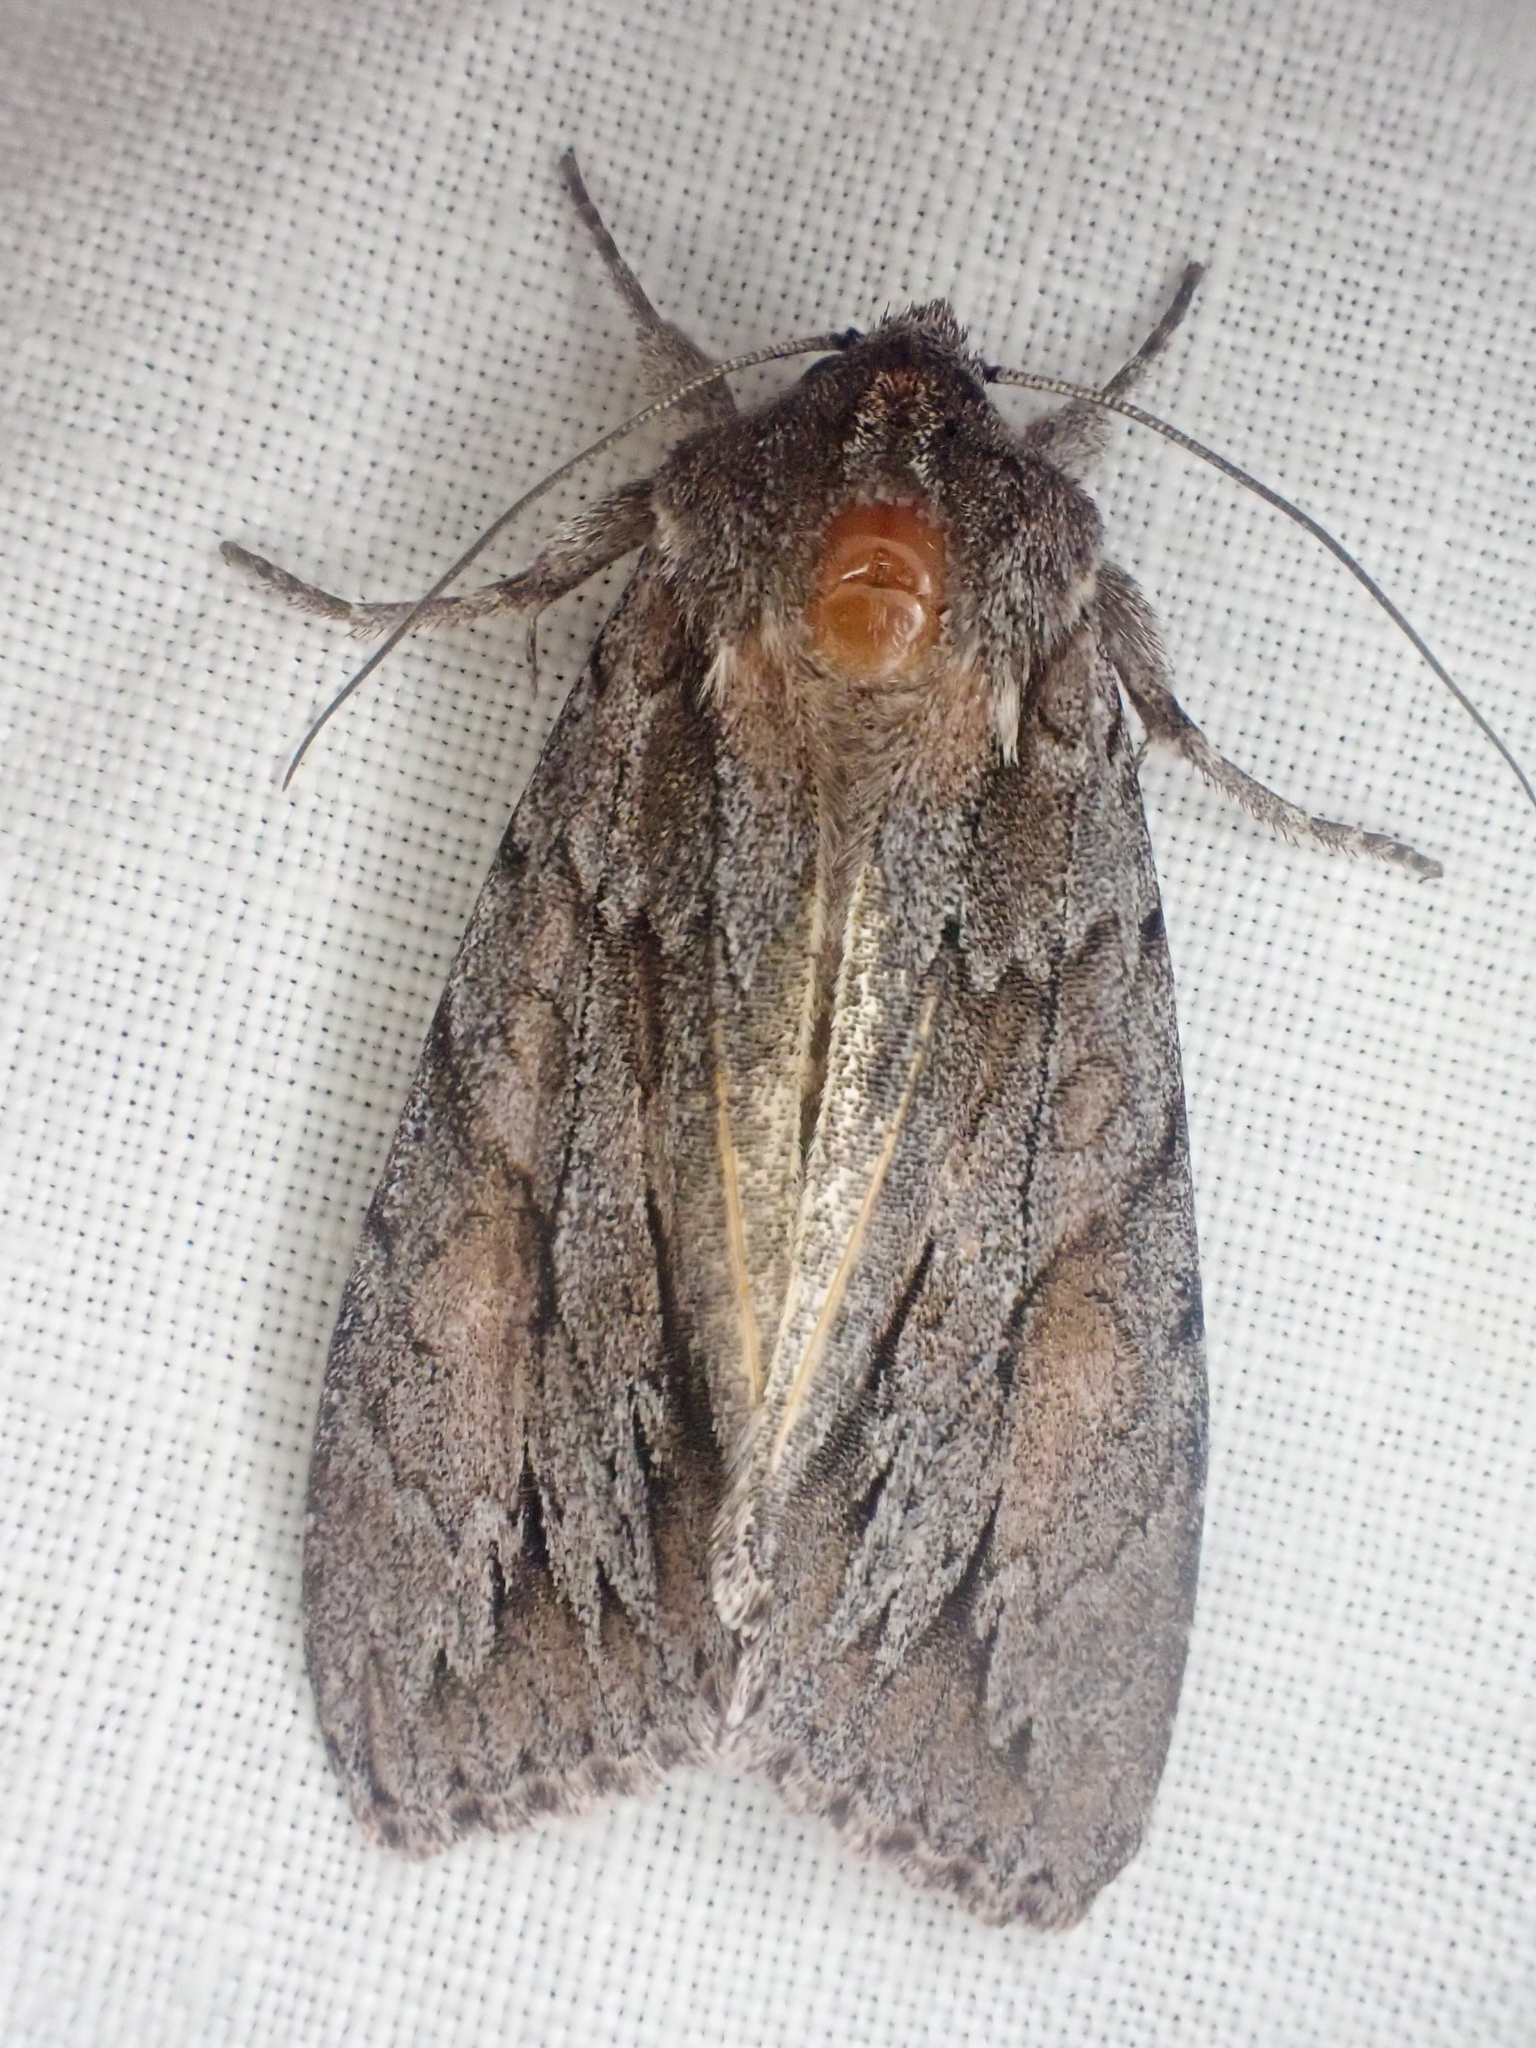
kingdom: Animalia
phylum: Arthropoda
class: Insecta
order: Lepidoptera
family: Noctuidae
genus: Andropolia
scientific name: Andropolia theodori
